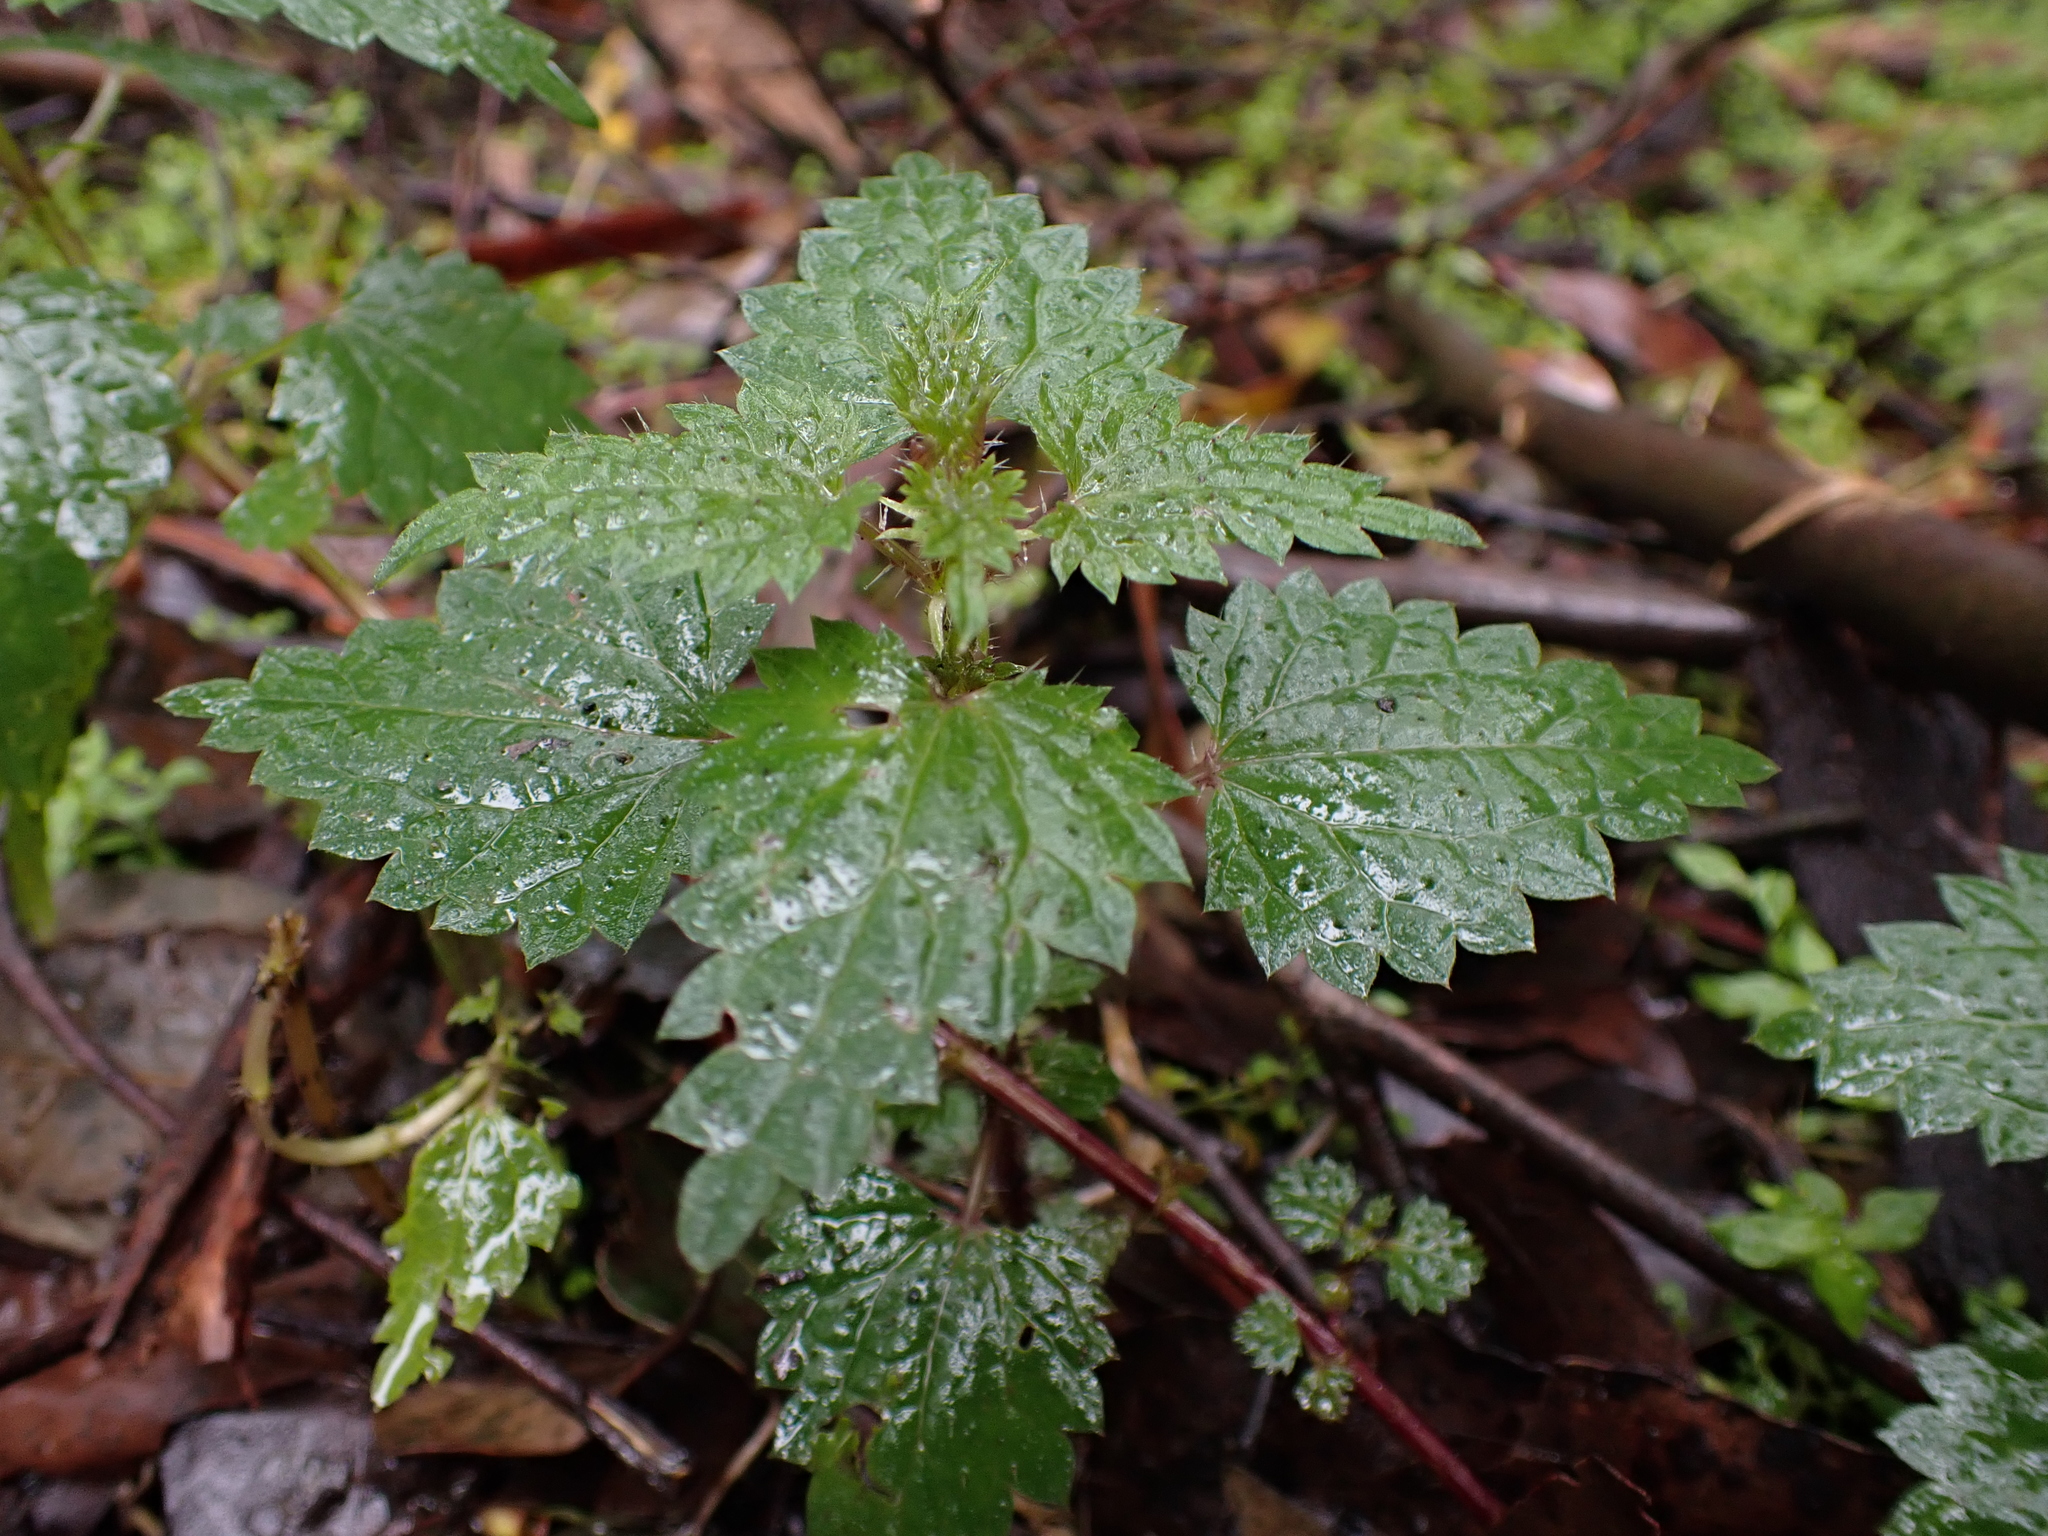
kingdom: Plantae
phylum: Tracheophyta
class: Magnoliopsida
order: Rosales
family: Urticaceae
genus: Urtica
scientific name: Urtica incisa
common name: Scrub nettle
